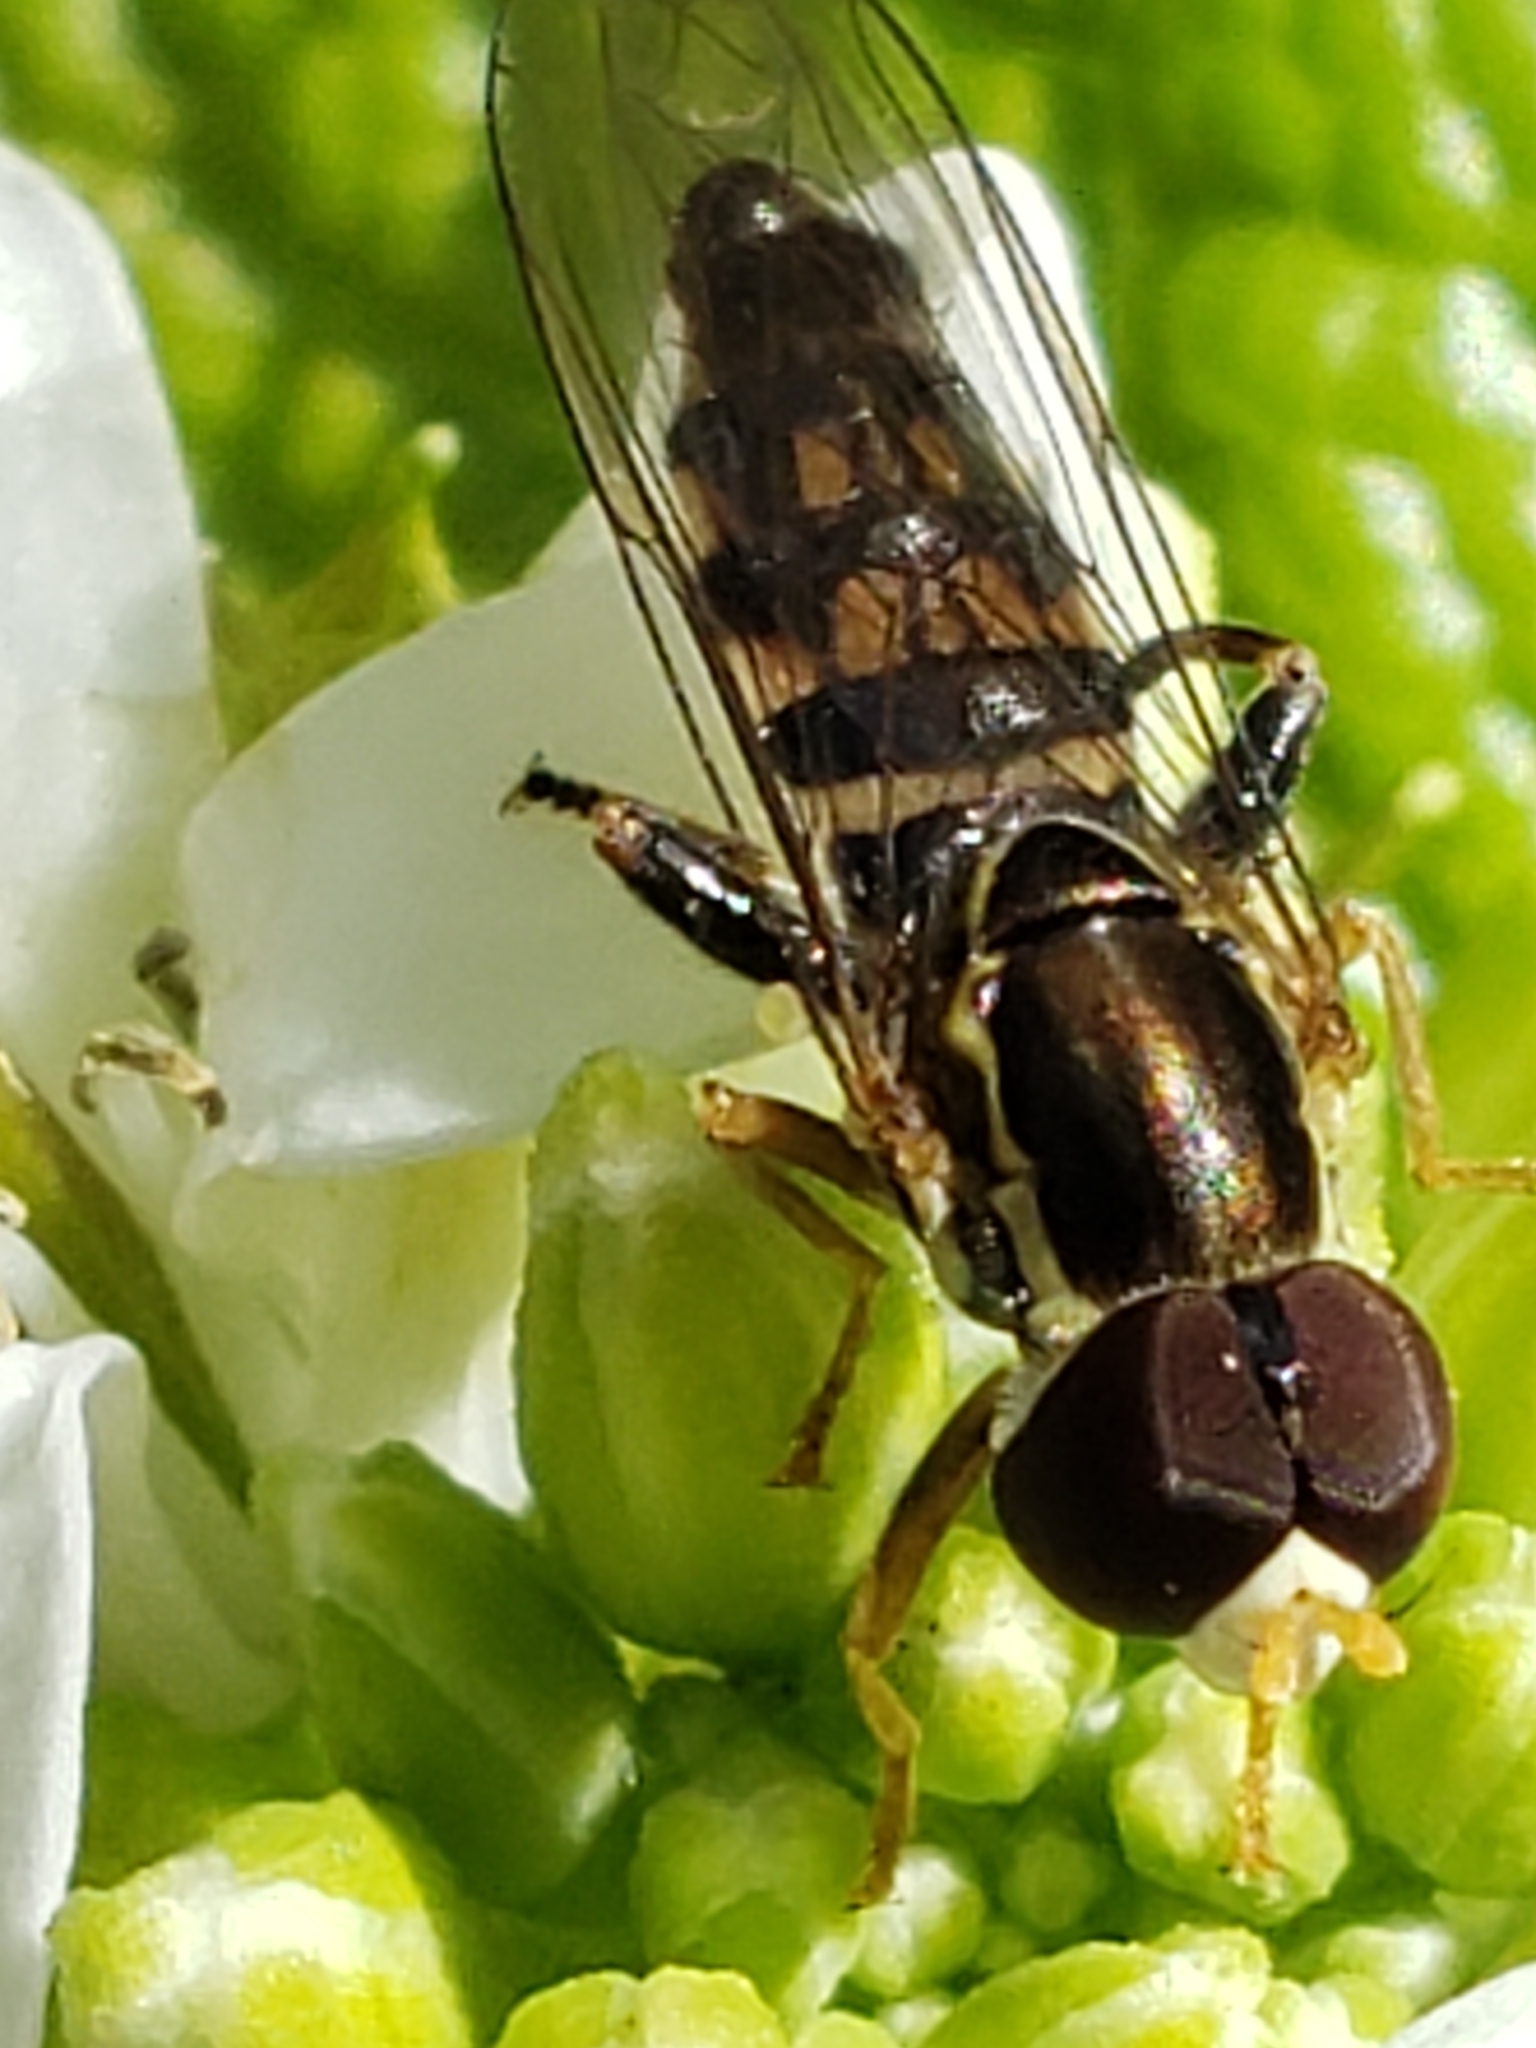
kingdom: Animalia
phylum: Arthropoda
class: Insecta
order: Diptera
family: Syrphidae
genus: Toxomerus
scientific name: Toxomerus geminatus
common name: Eastern calligrapher
